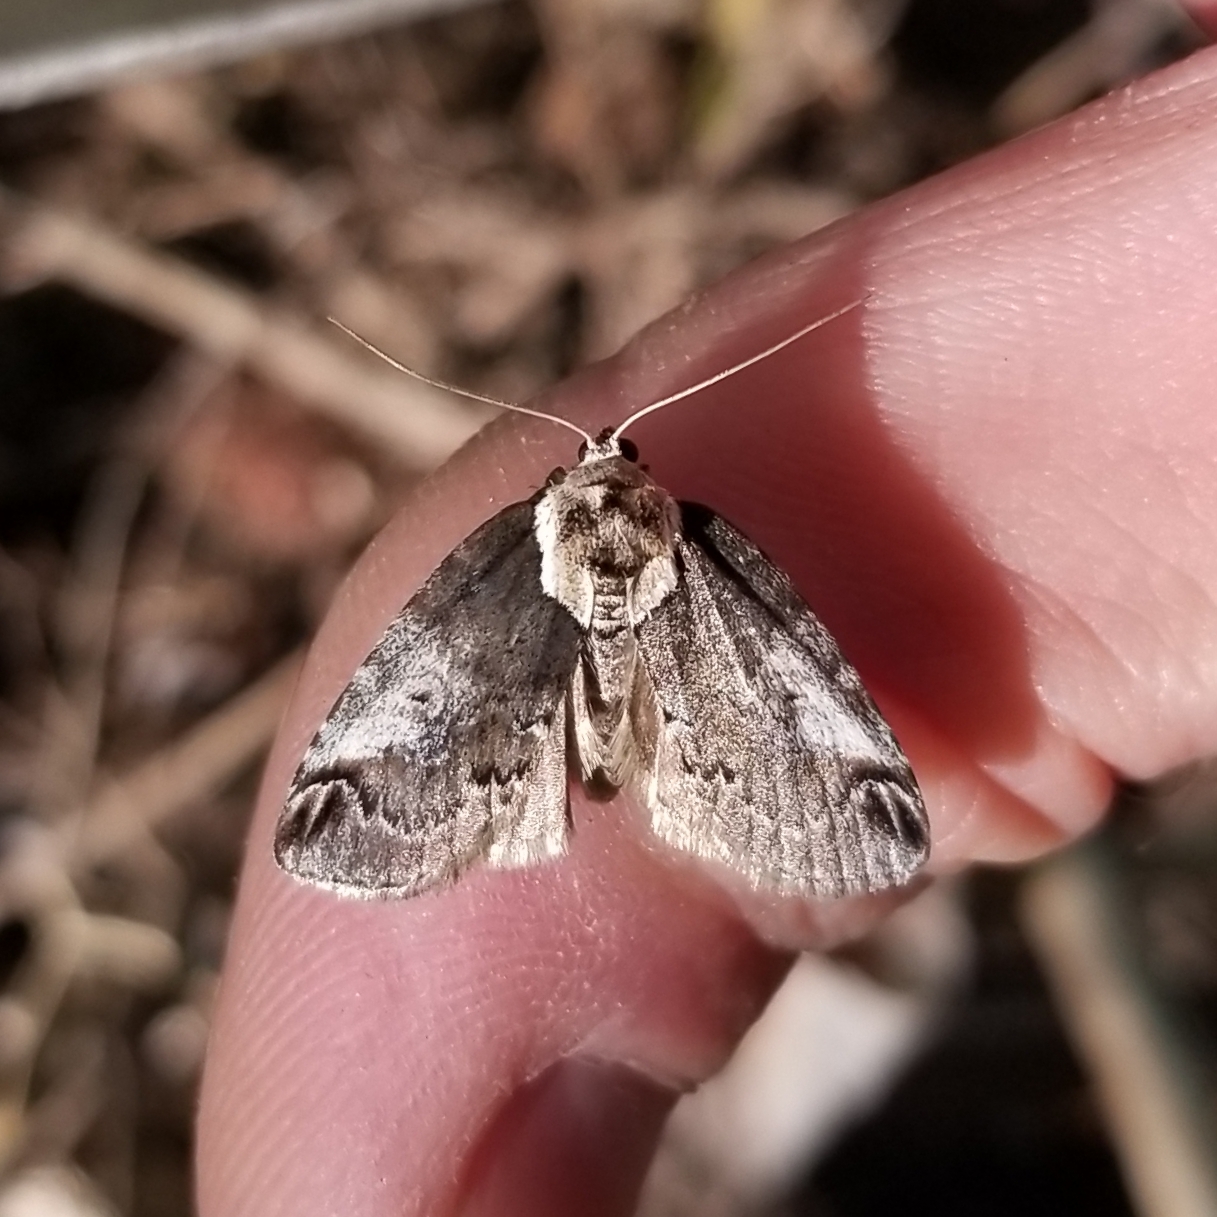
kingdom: Animalia
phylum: Arthropoda
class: Insecta
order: Lepidoptera
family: Nolidae
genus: Baileya
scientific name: Baileya ophthalmica
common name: Eyed baileya moth
